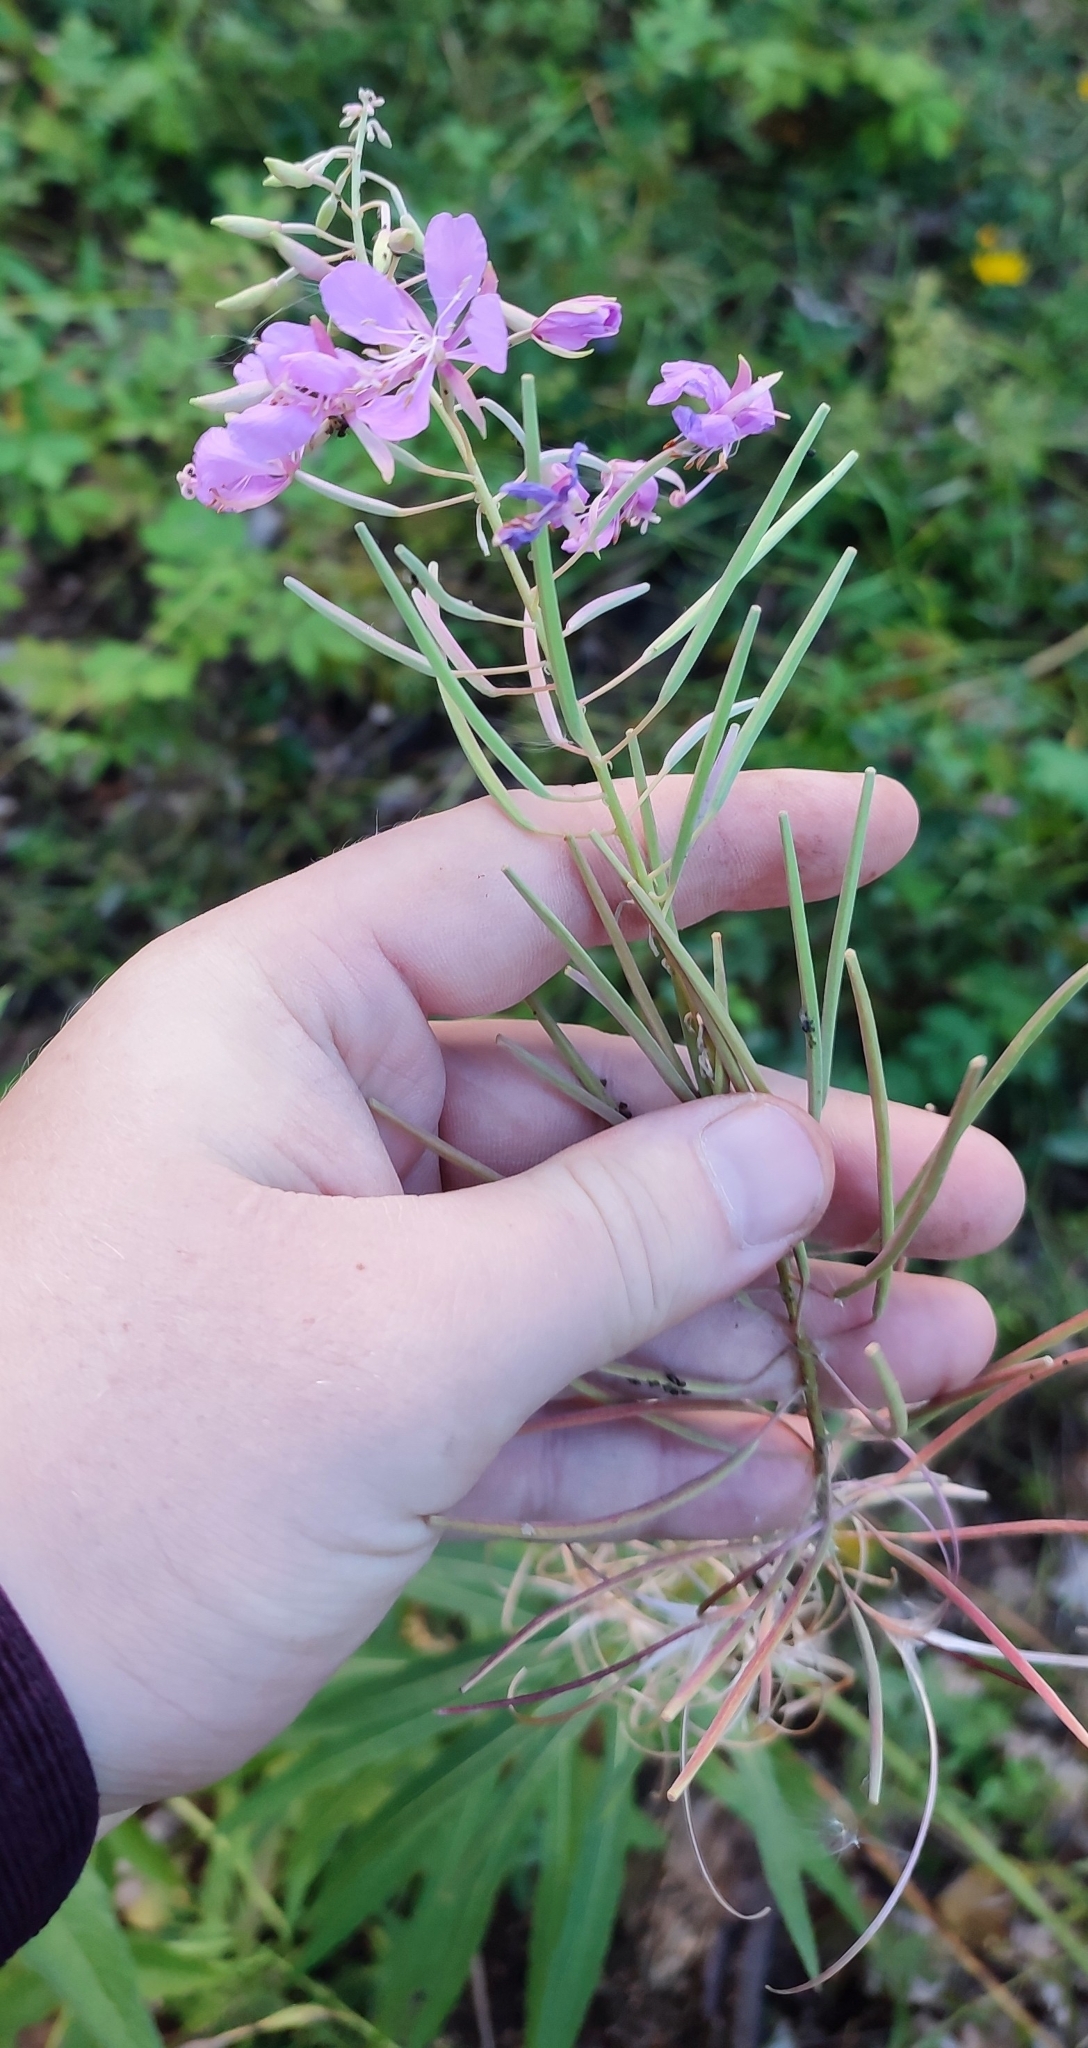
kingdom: Plantae
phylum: Tracheophyta
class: Magnoliopsida
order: Myrtales
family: Onagraceae
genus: Chamaenerion
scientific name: Chamaenerion angustifolium
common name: Fireweed
